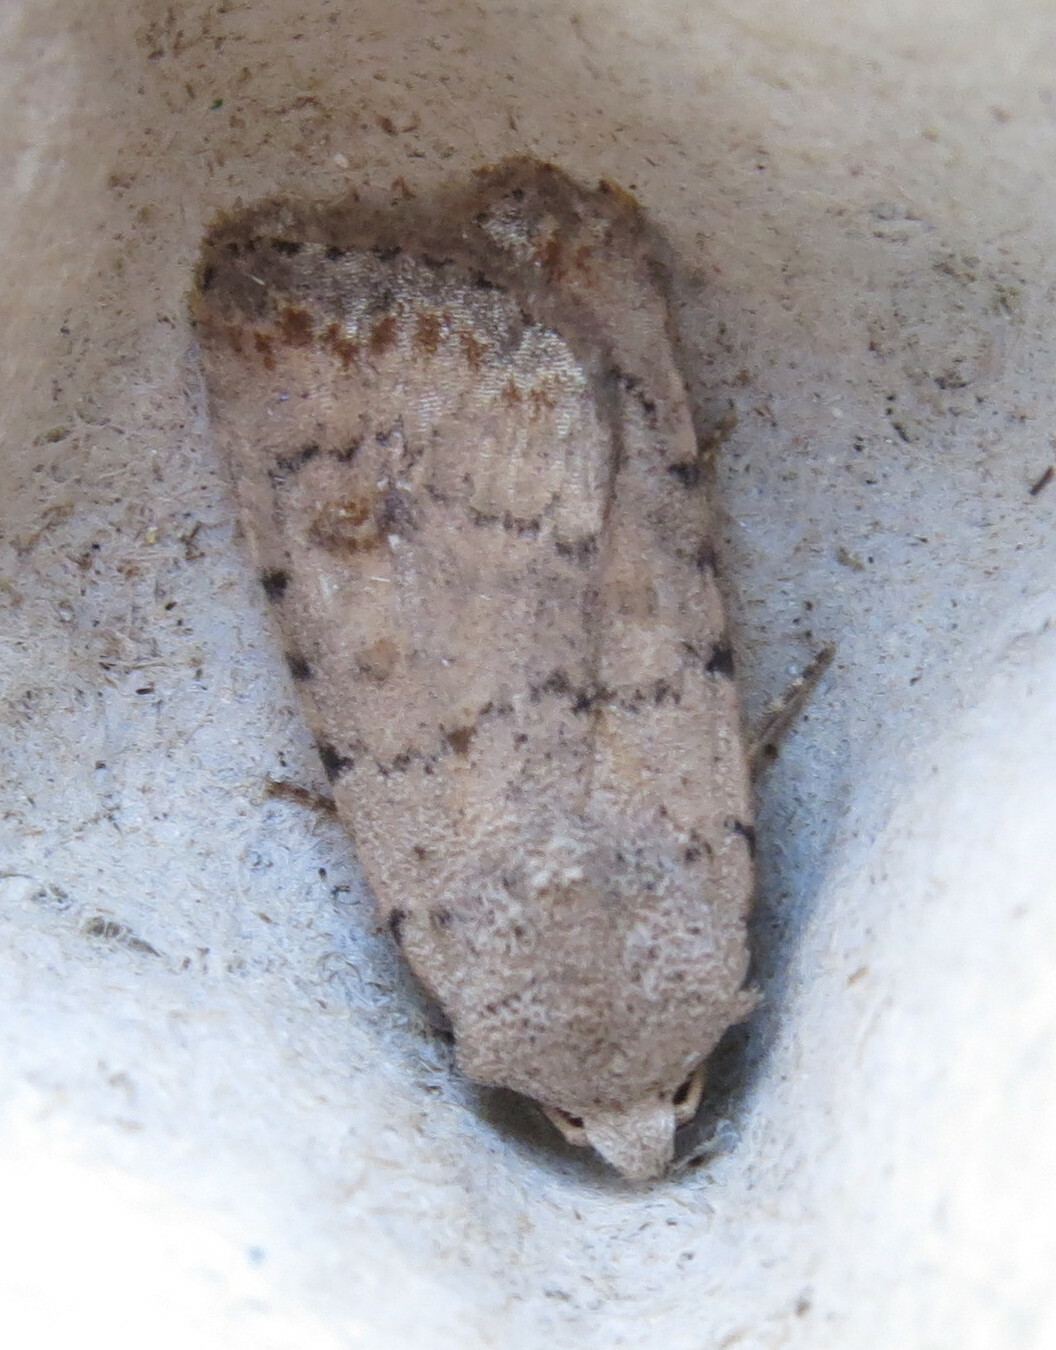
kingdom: Animalia
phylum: Arthropoda
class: Insecta
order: Lepidoptera
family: Noctuidae
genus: Caradrina
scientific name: Caradrina clavipalpis
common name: Pale mottled willow
